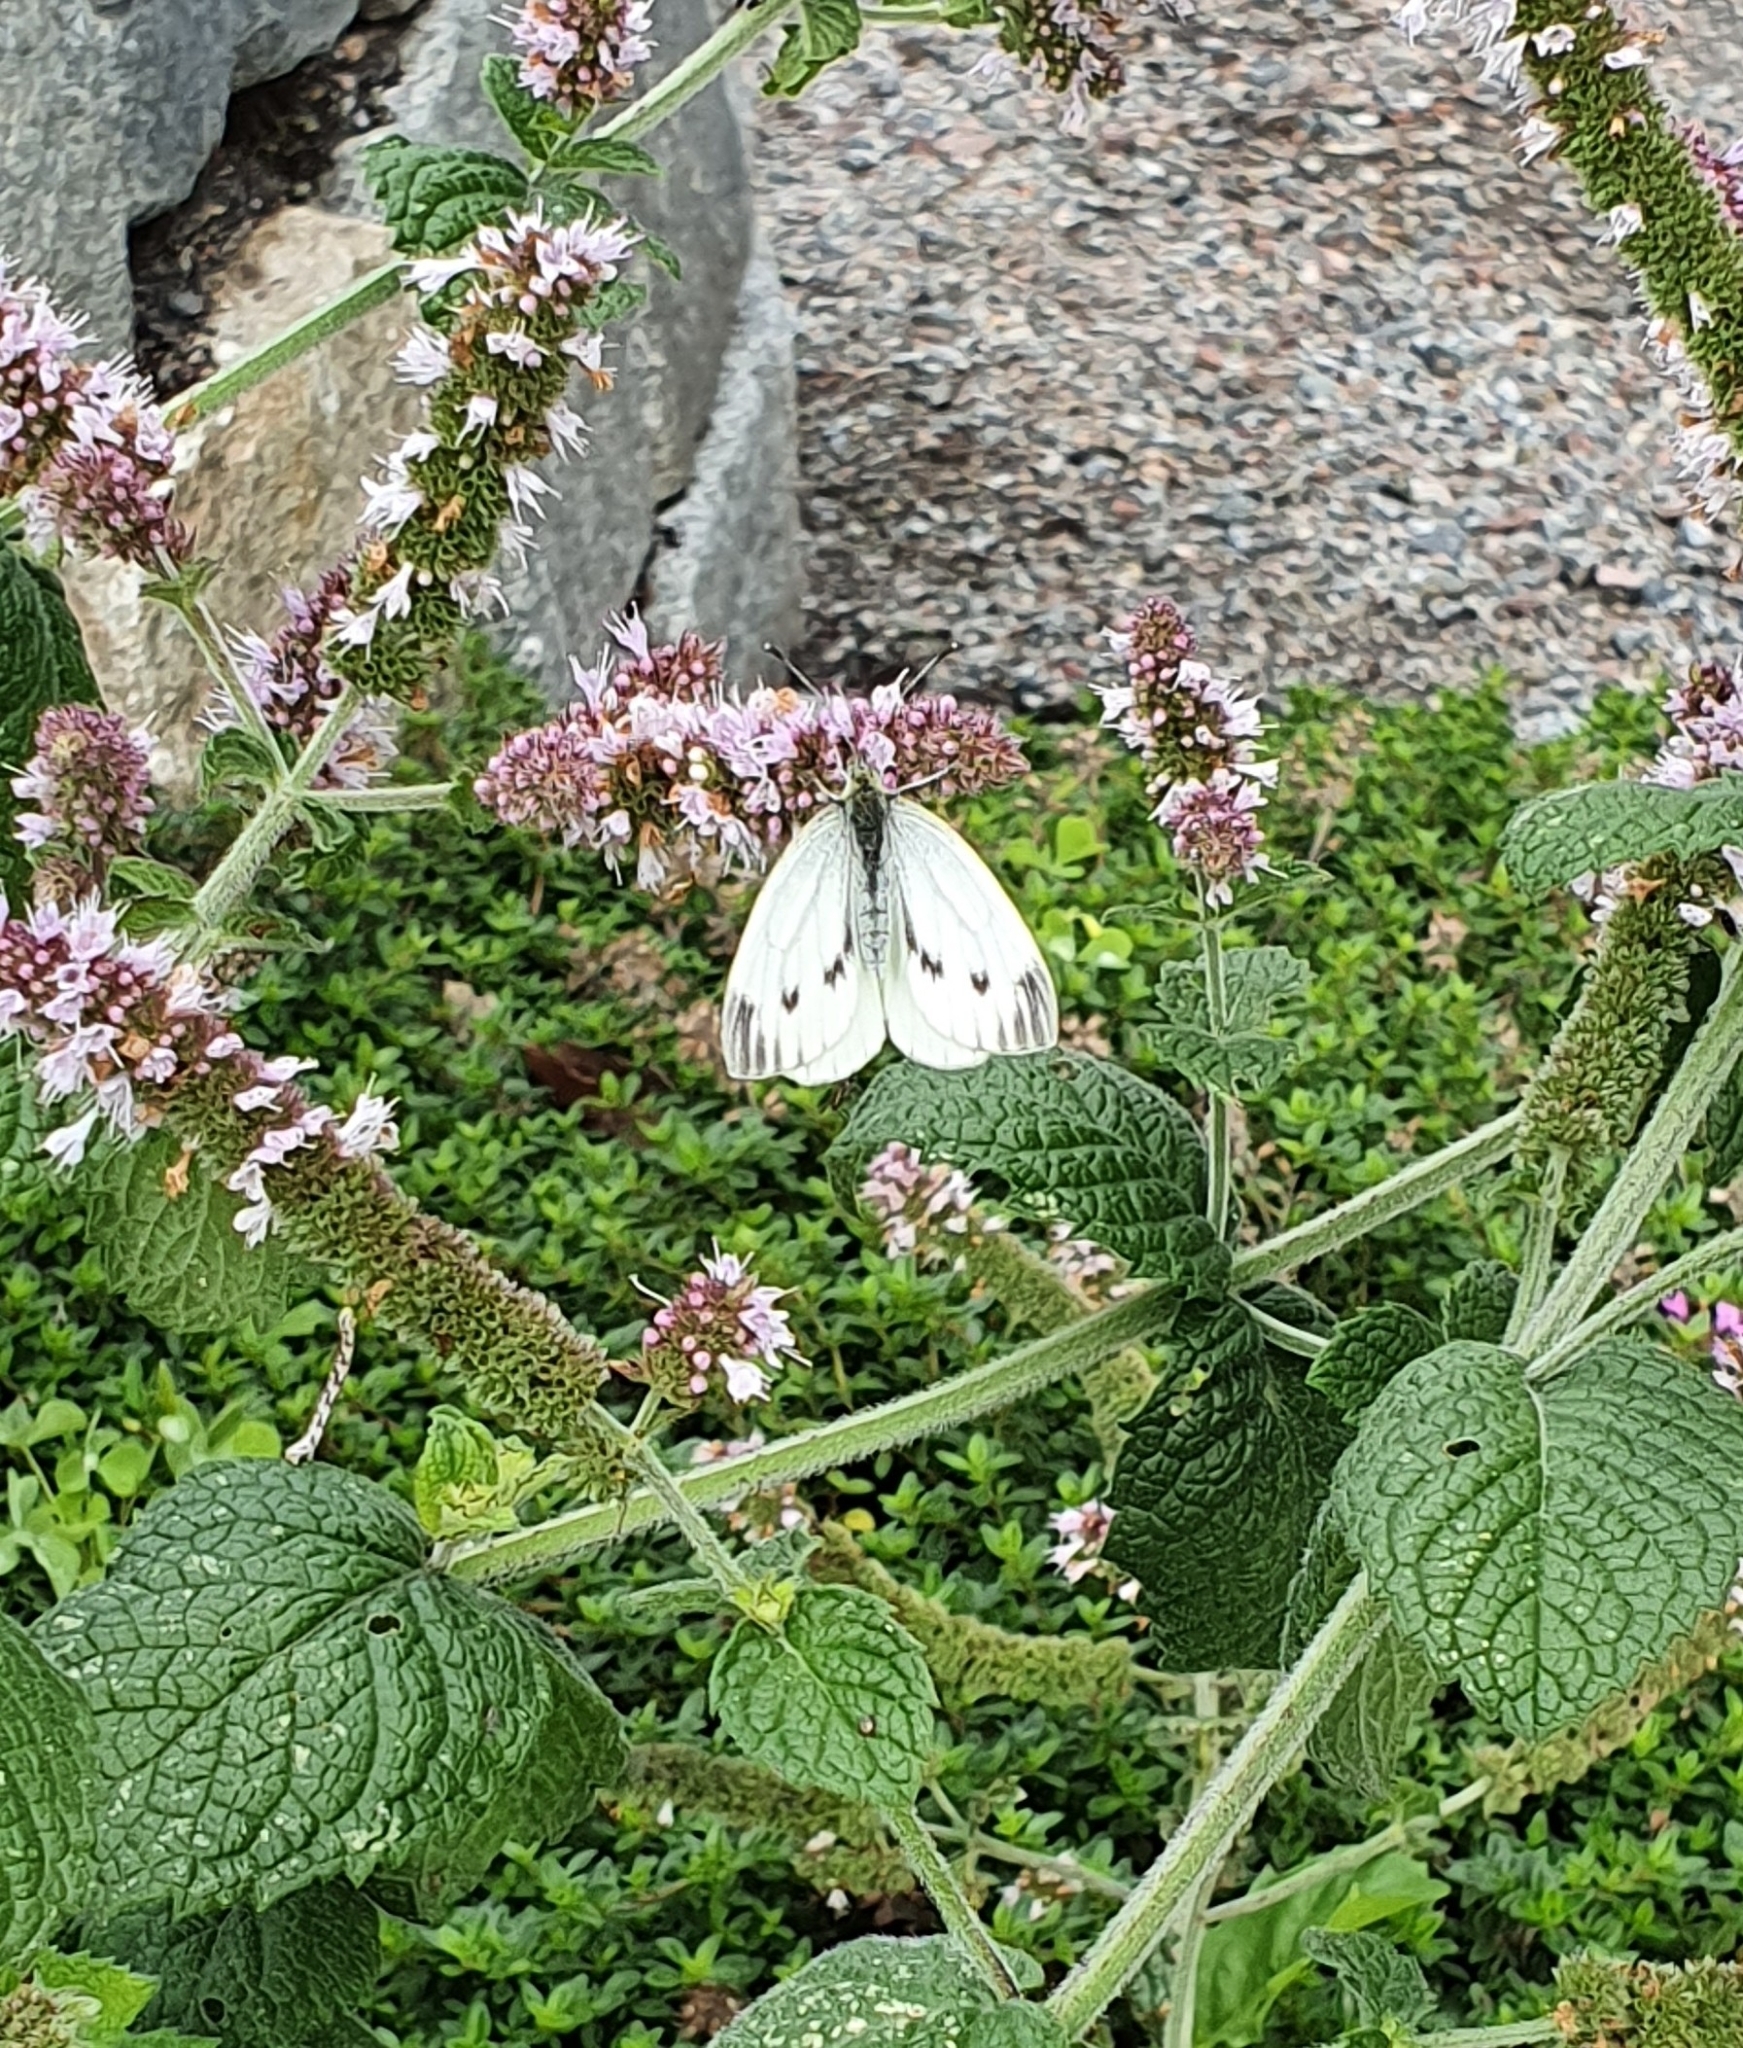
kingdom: Animalia
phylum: Arthropoda
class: Insecta
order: Lepidoptera
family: Pieridae
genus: Pieris
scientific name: Pieris napi
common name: Green-veined white
